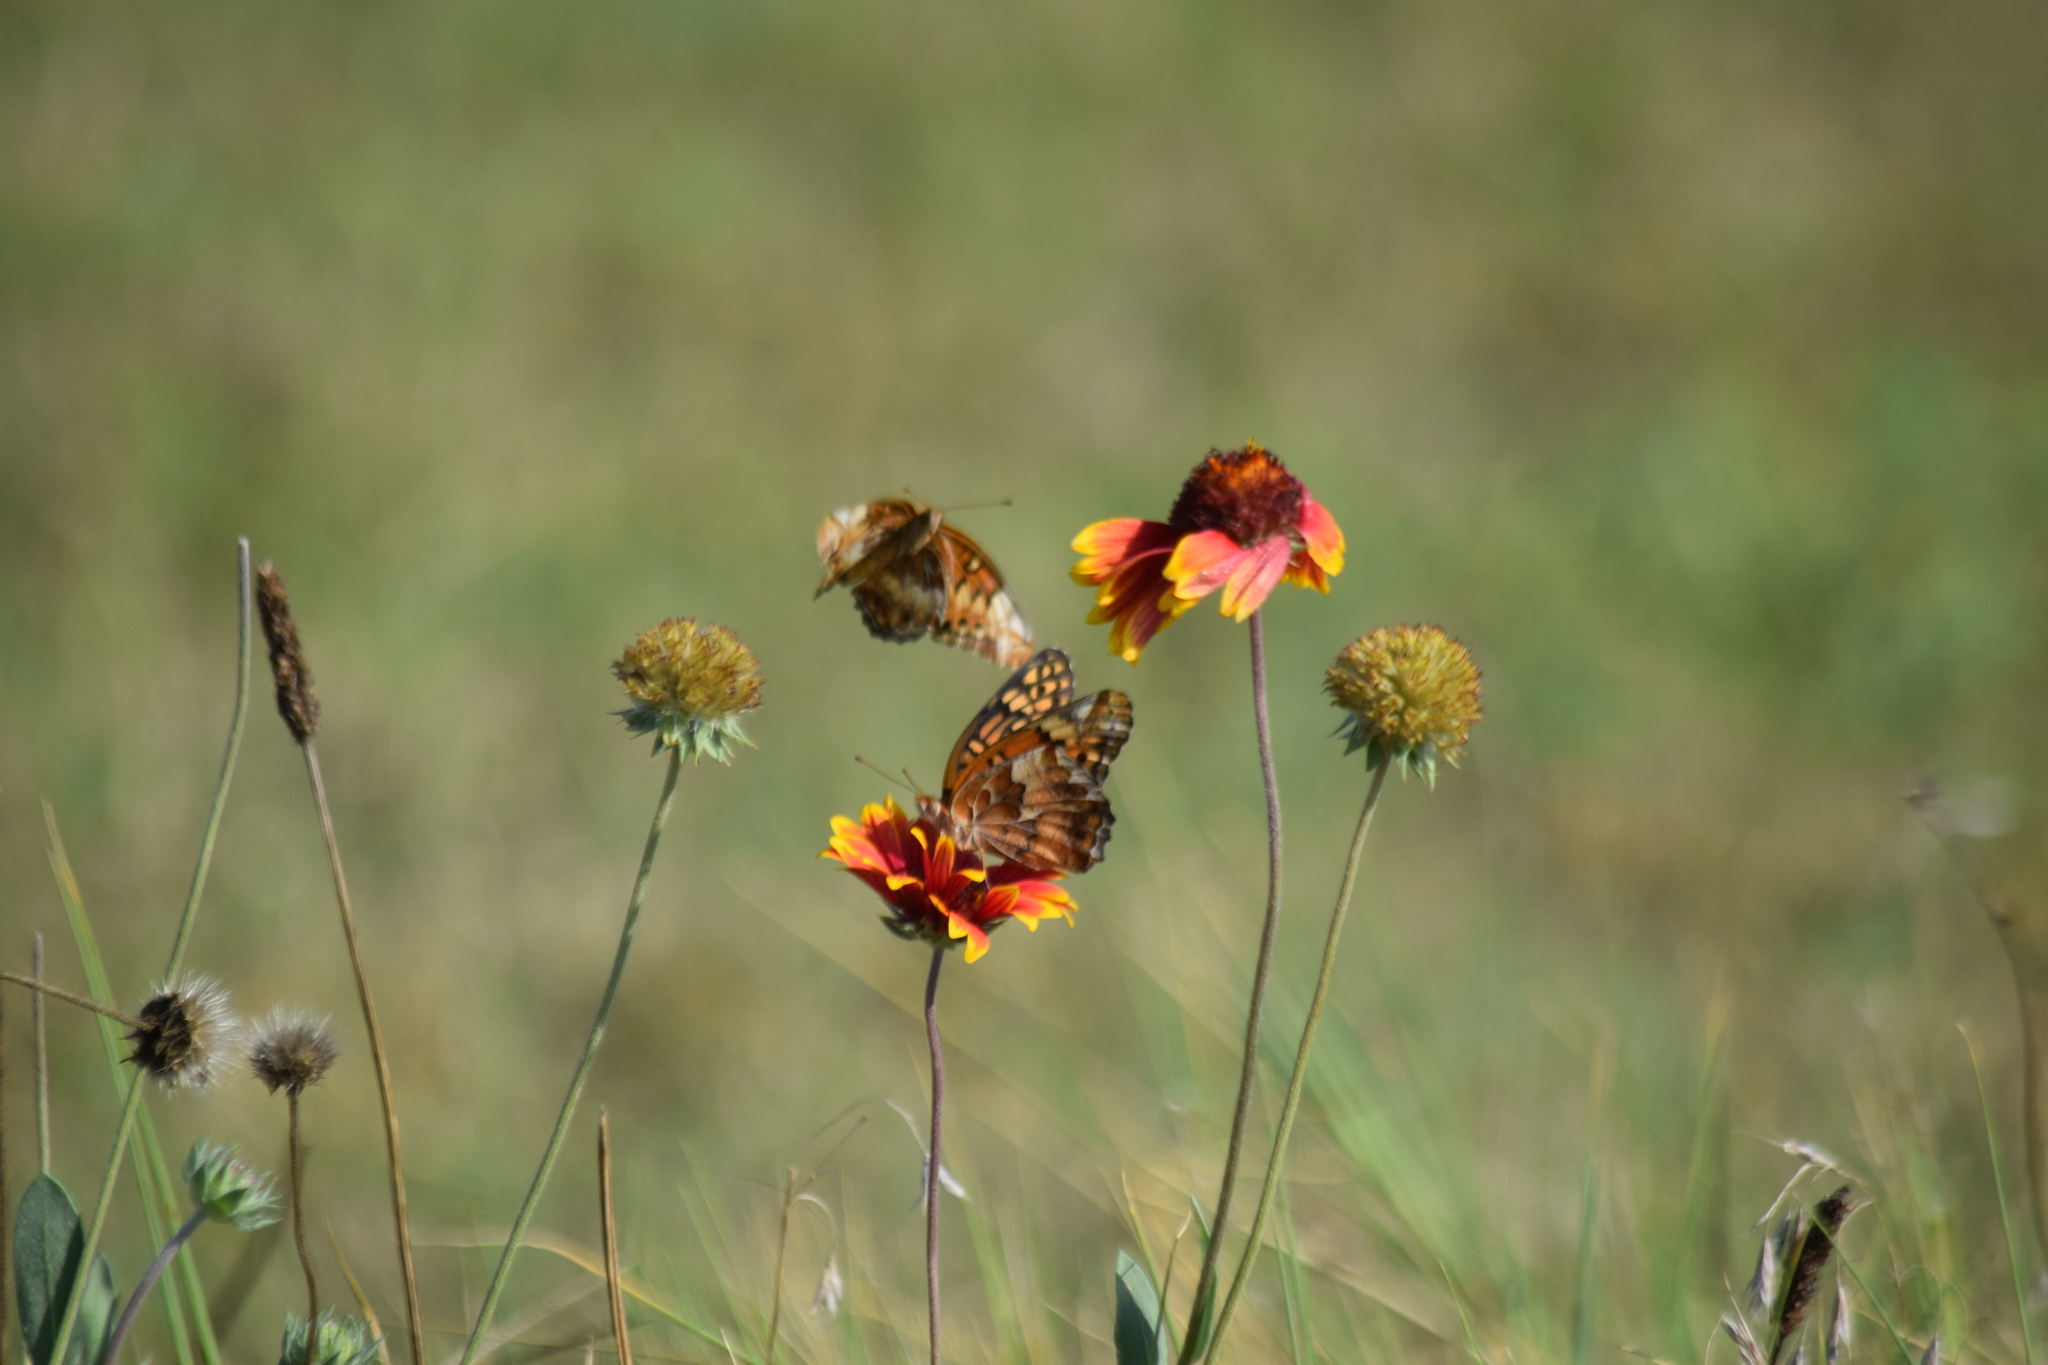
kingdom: Animalia
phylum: Arthropoda
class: Insecta
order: Lepidoptera
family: Nymphalidae
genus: Euptoieta
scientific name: Euptoieta claudia
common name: Variegated fritillary
